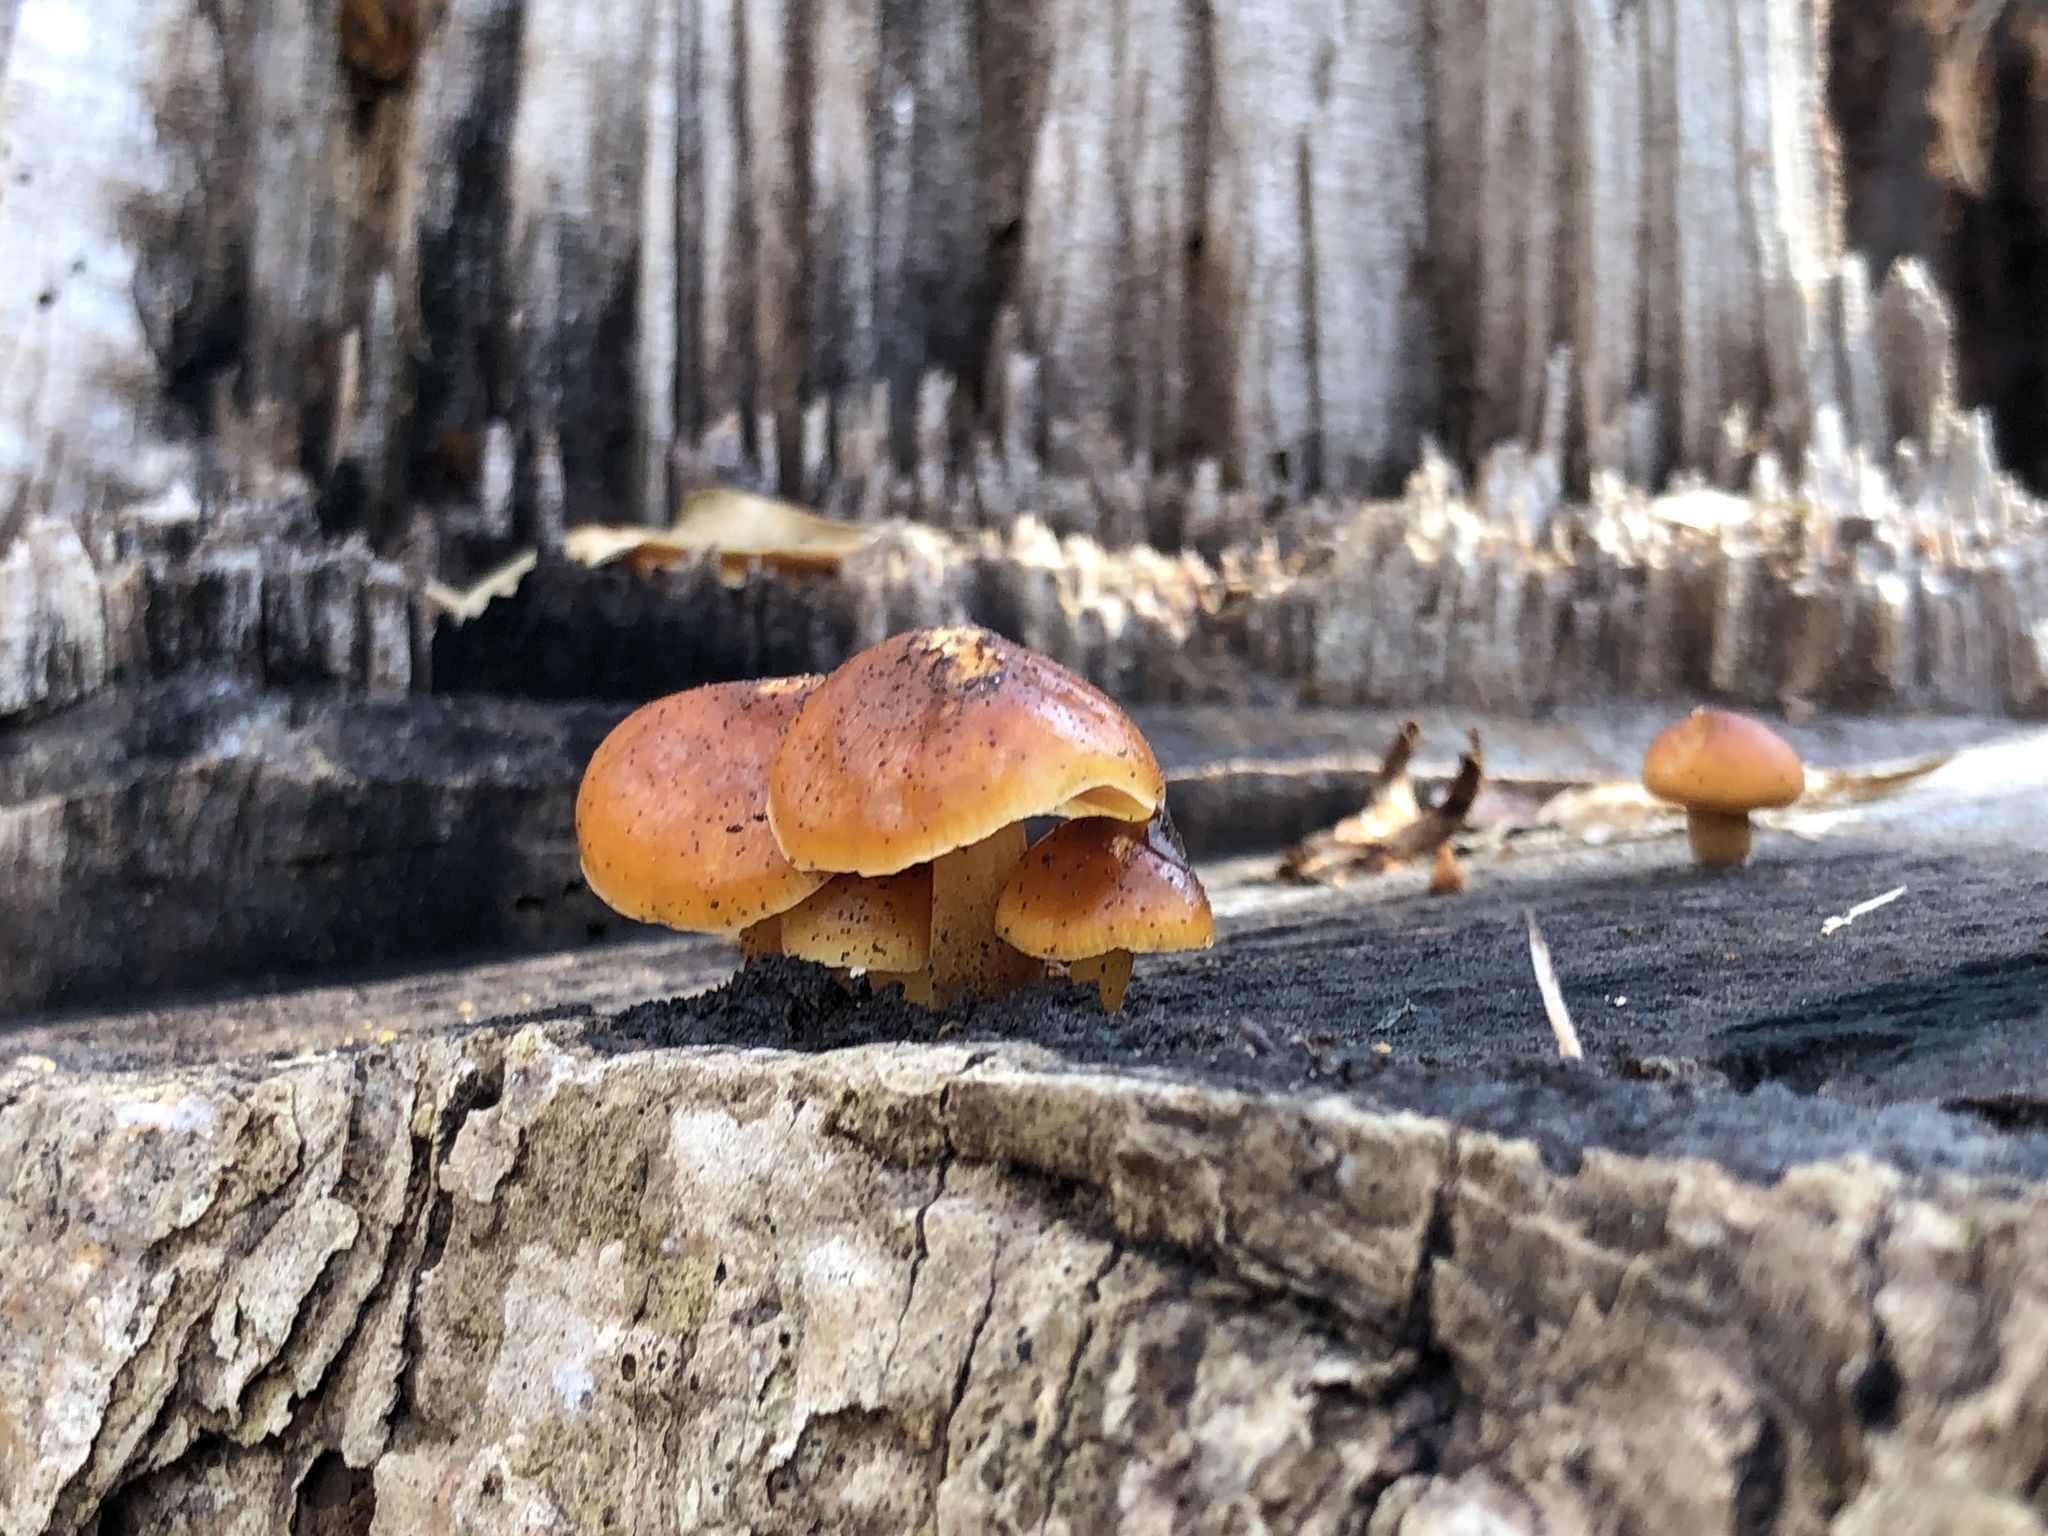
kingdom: Fungi
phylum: Basidiomycota
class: Agaricomycetes
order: Agaricales
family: Physalacriaceae
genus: Flammulina
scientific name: Flammulina
